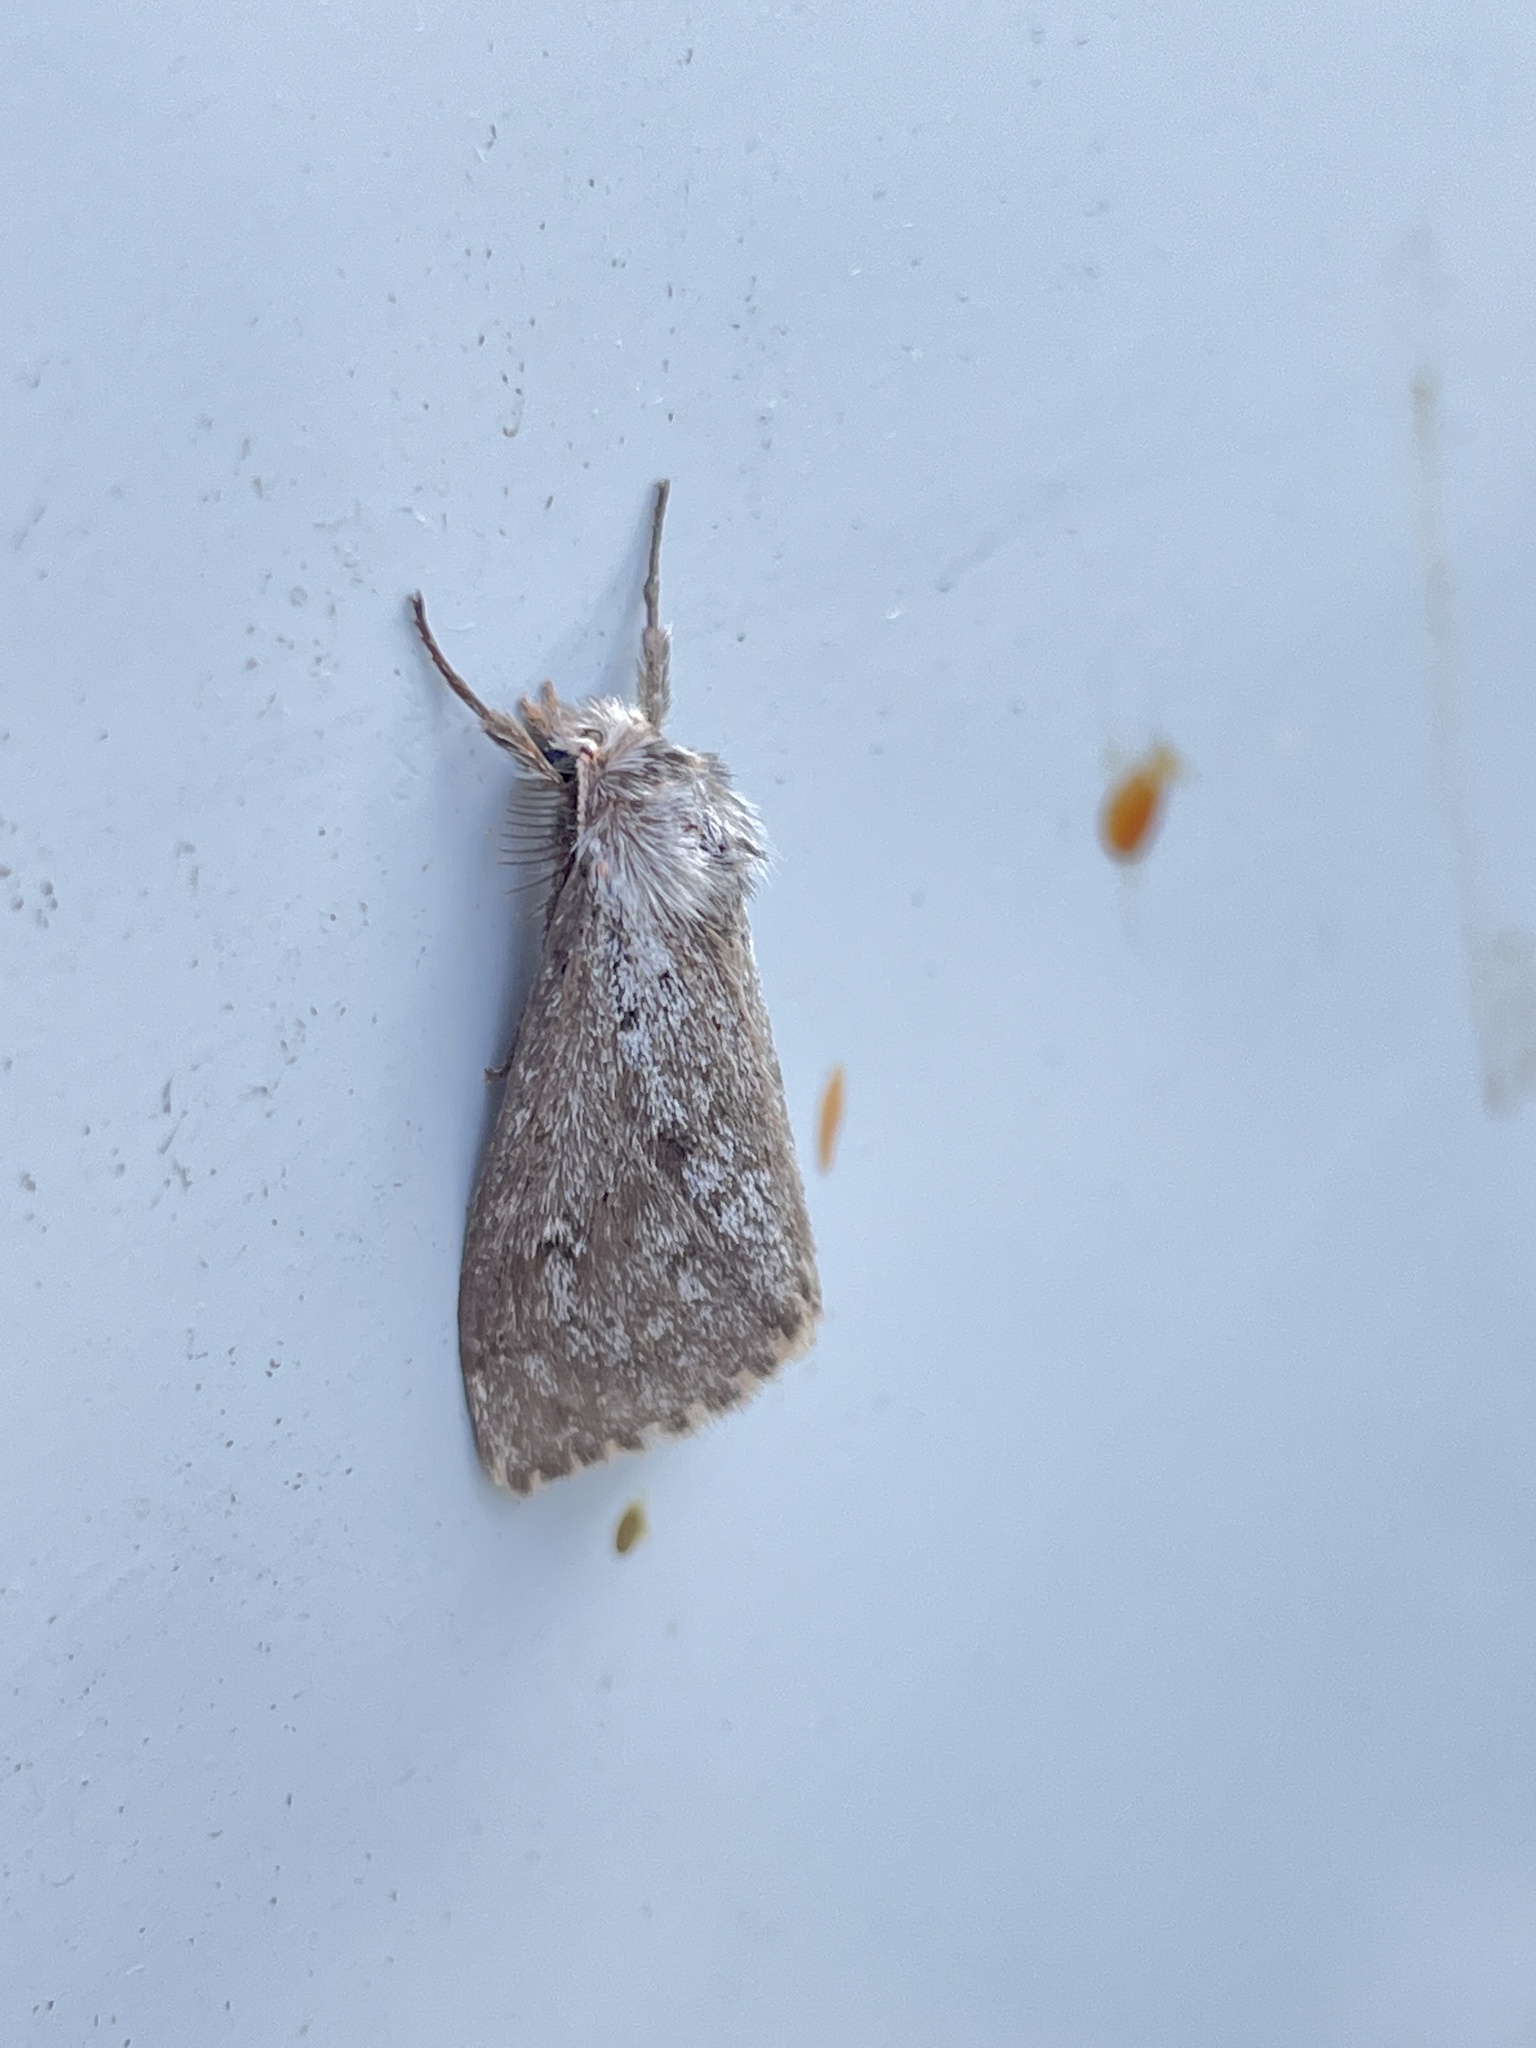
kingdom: Animalia
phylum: Arthropoda
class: Insecta
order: Lepidoptera
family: Erebidae
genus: Ocneria
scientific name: Ocneria
